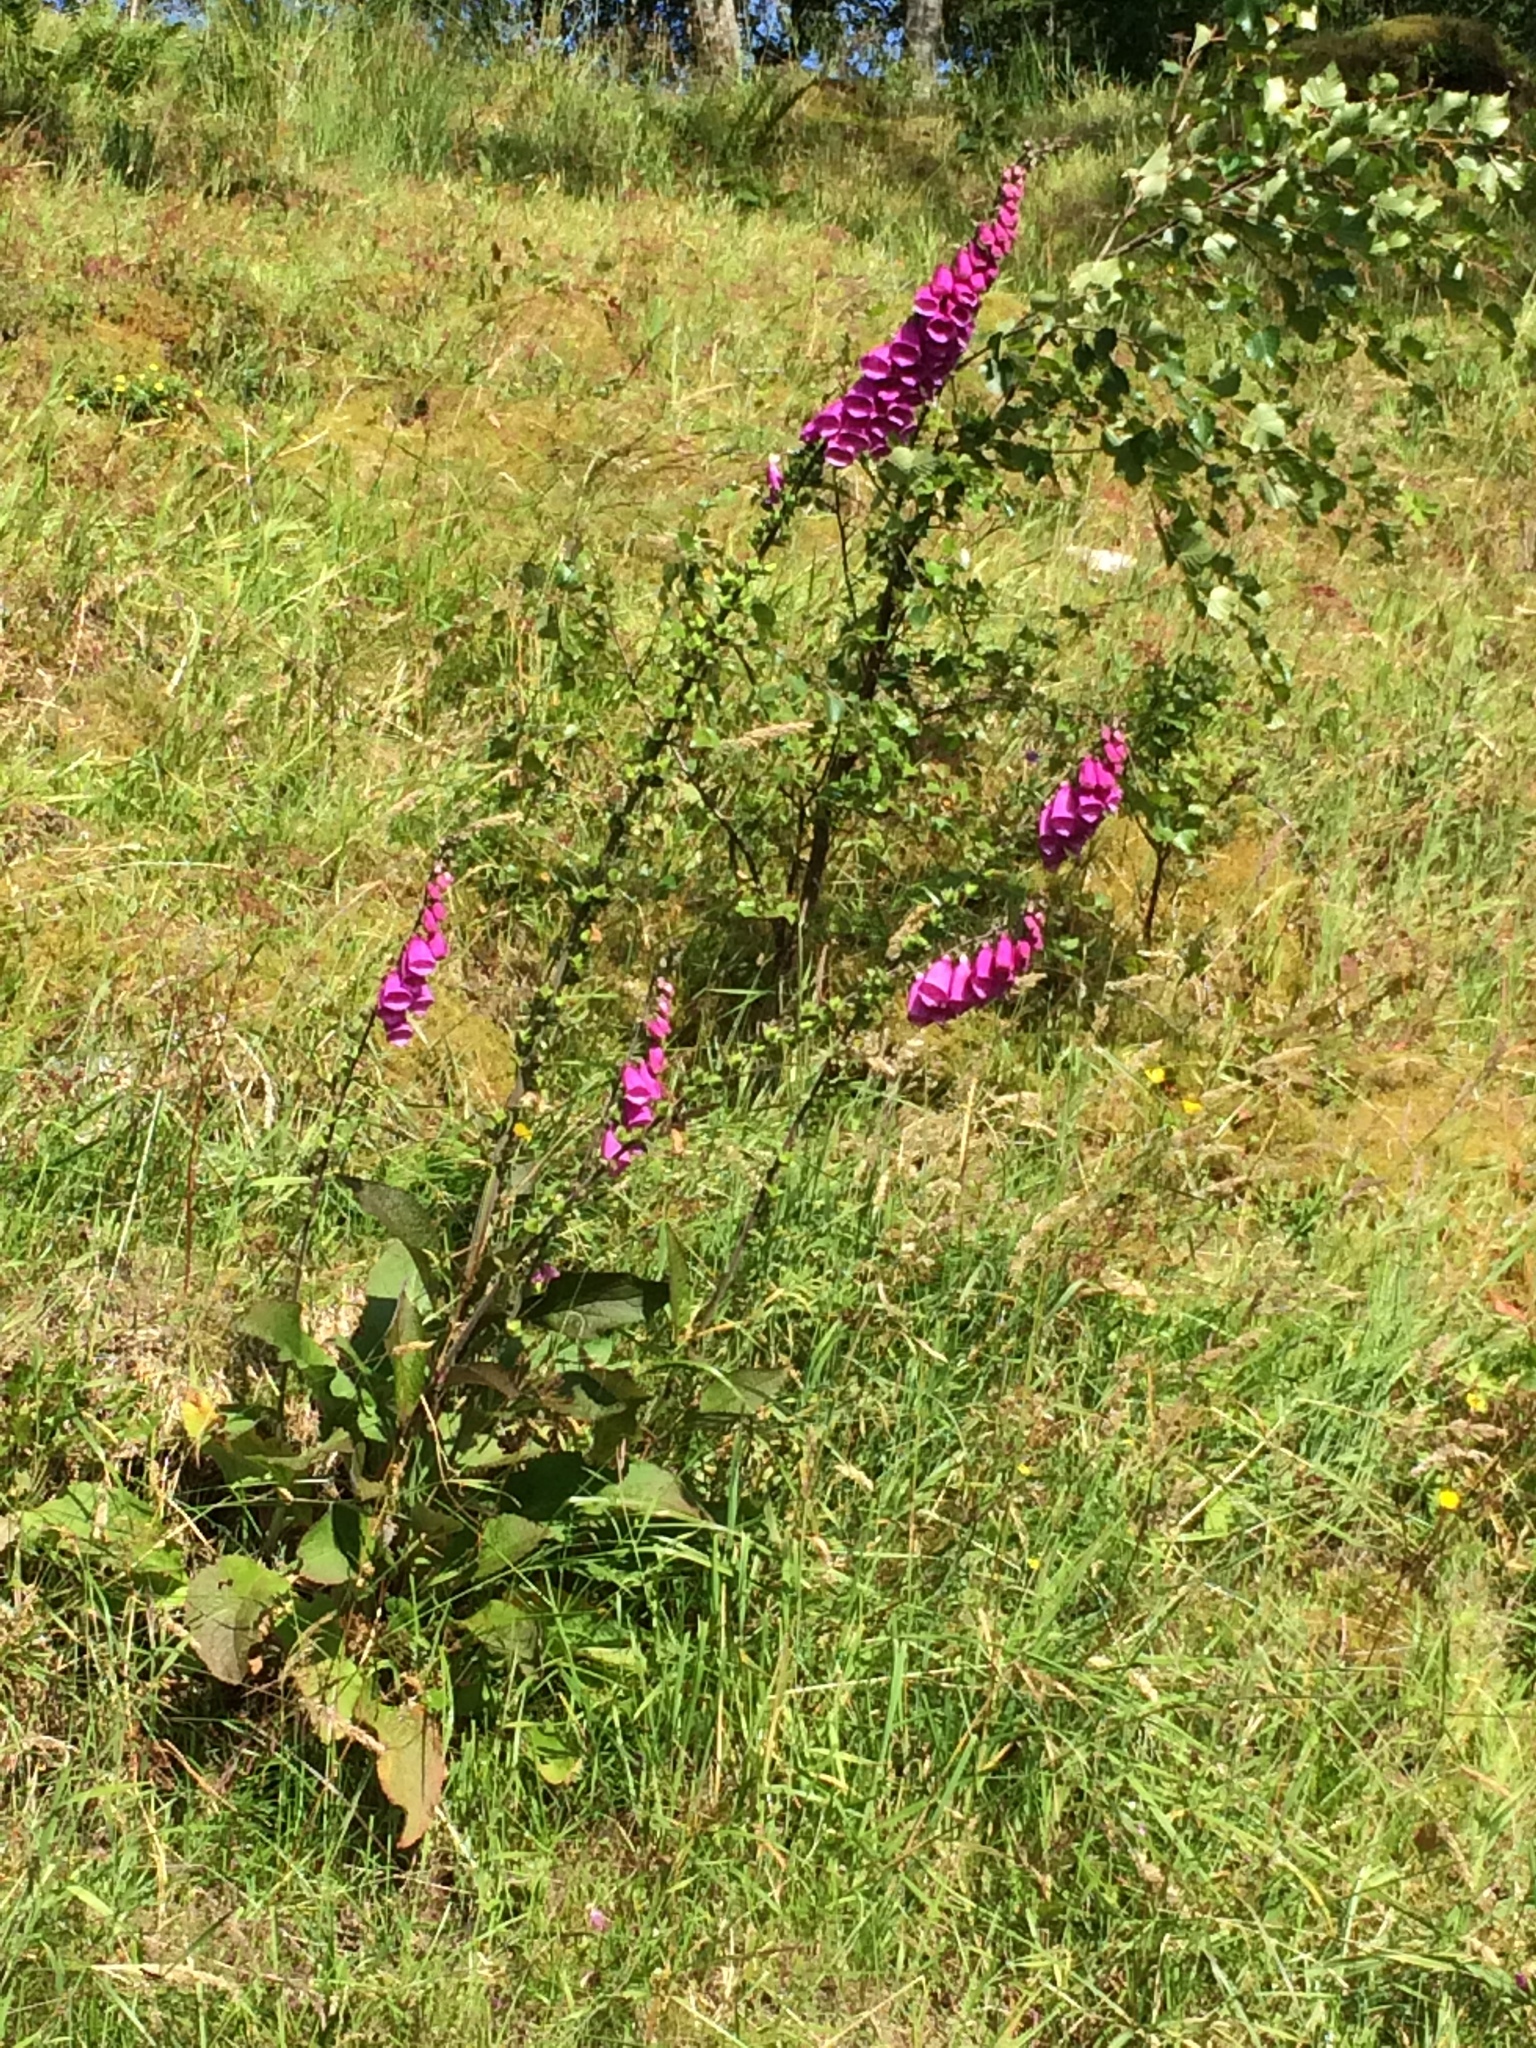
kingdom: Plantae
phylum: Tracheophyta
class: Magnoliopsida
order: Lamiales
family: Plantaginaceae
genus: Digitalis
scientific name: Digitalis purpurea
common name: Foxglove
